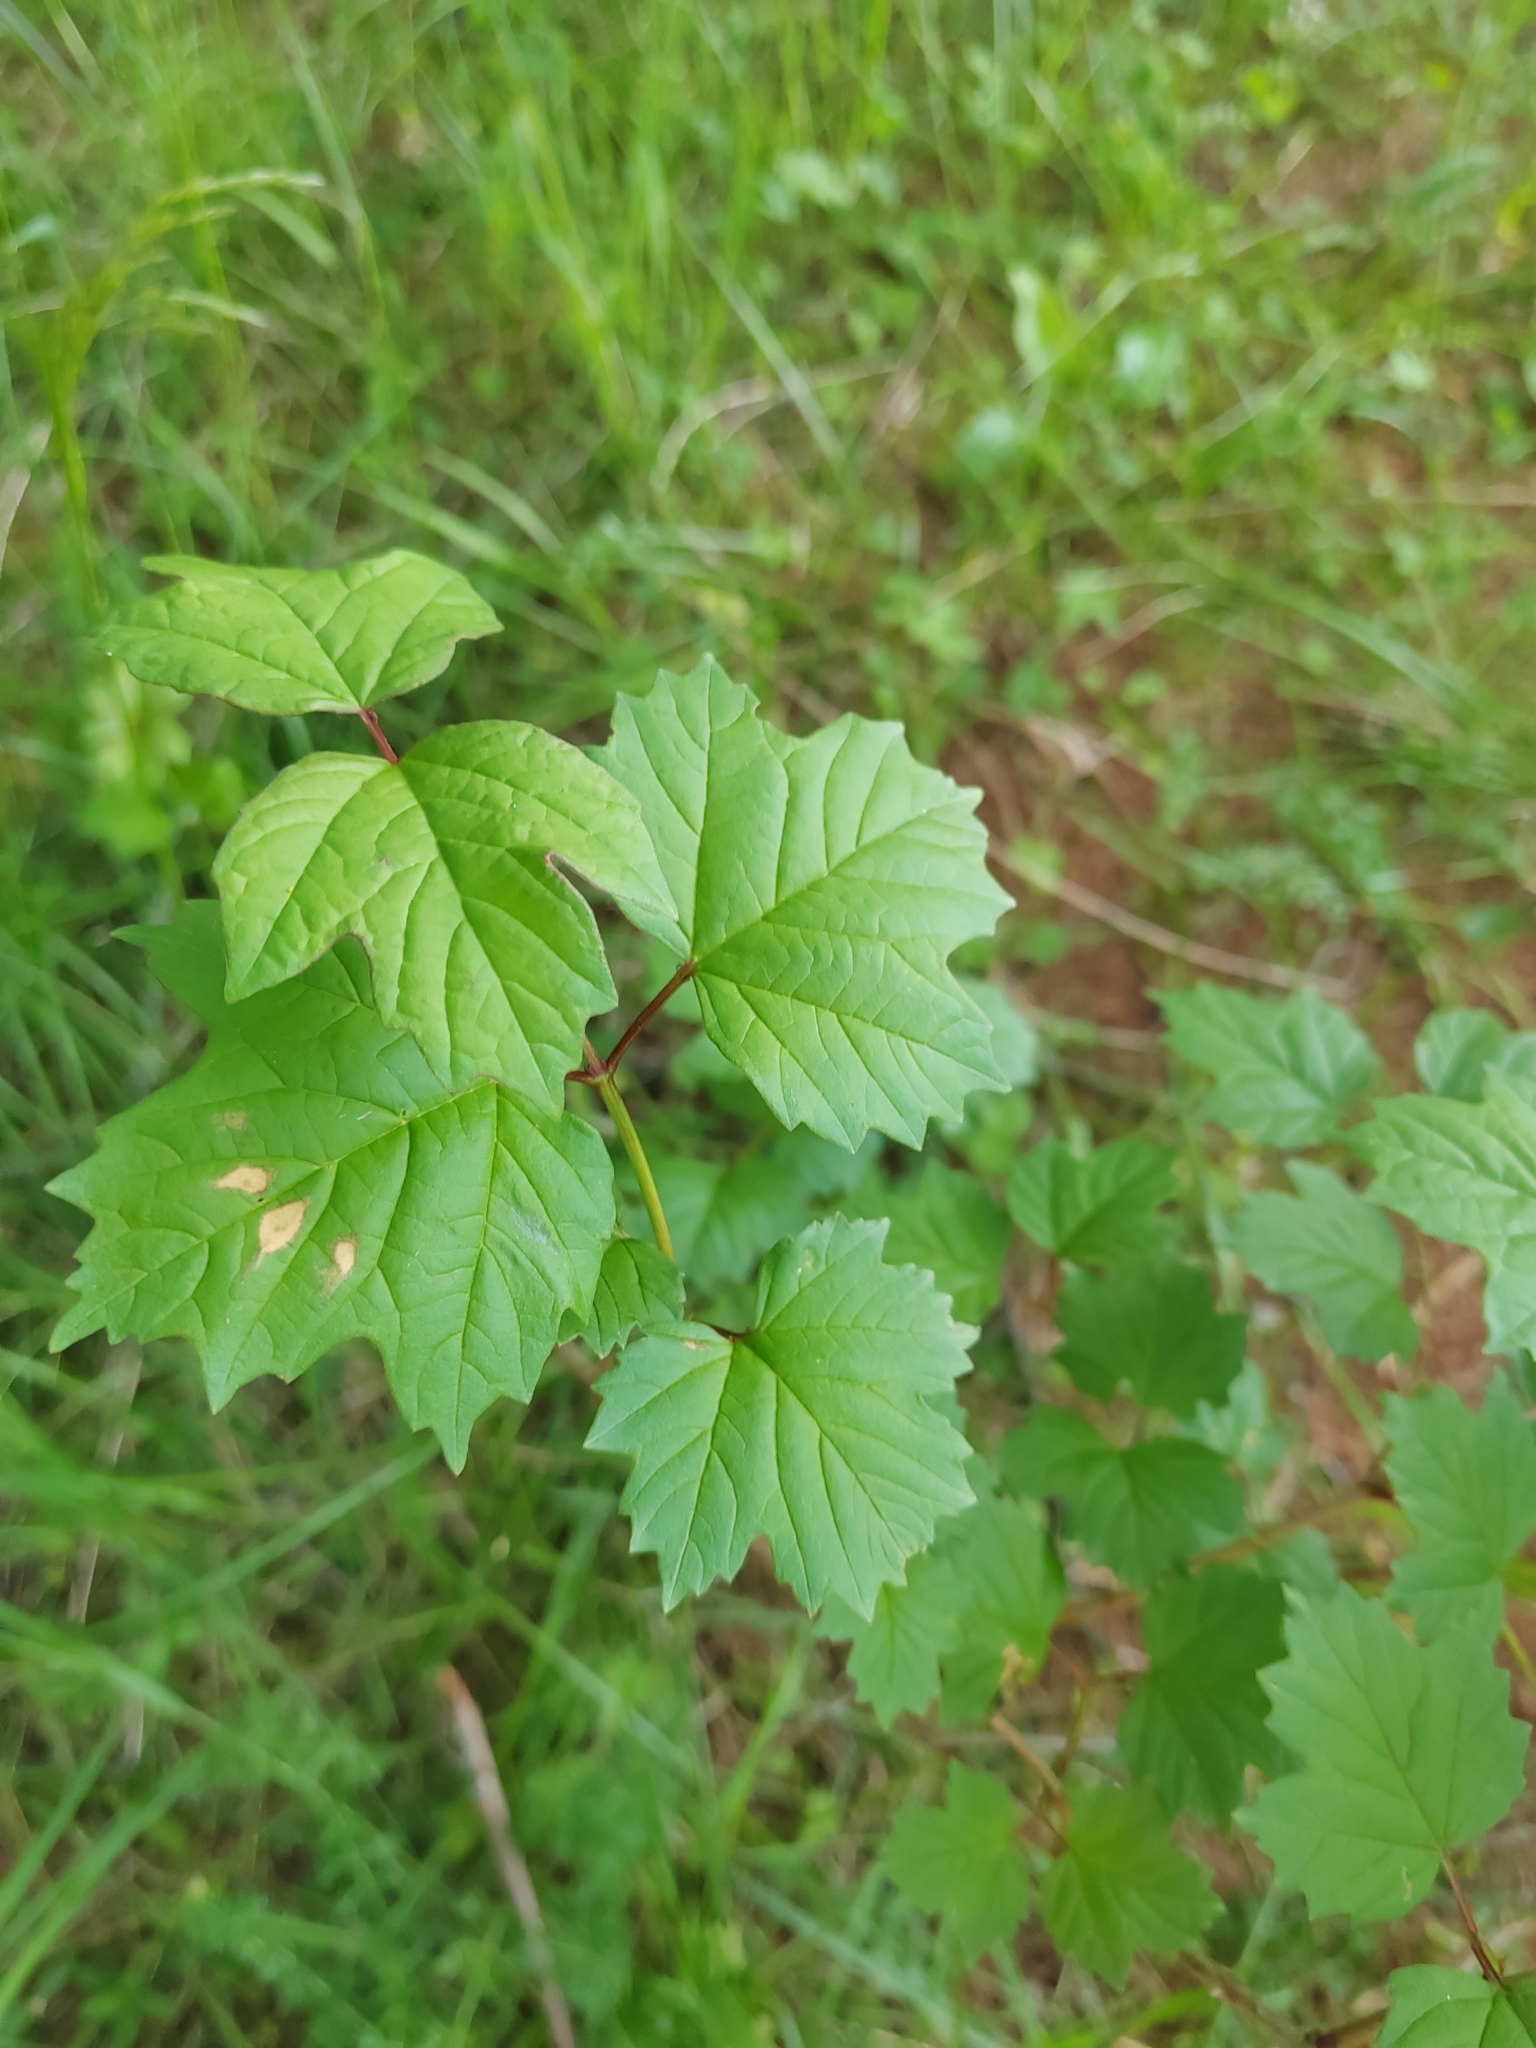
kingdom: Plantae
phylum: Tracheophyta
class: Magnoliopsida
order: Dipsacales
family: Viburnaceae
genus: Viburnum
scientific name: Viburnum opulus
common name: Guelder-rose
